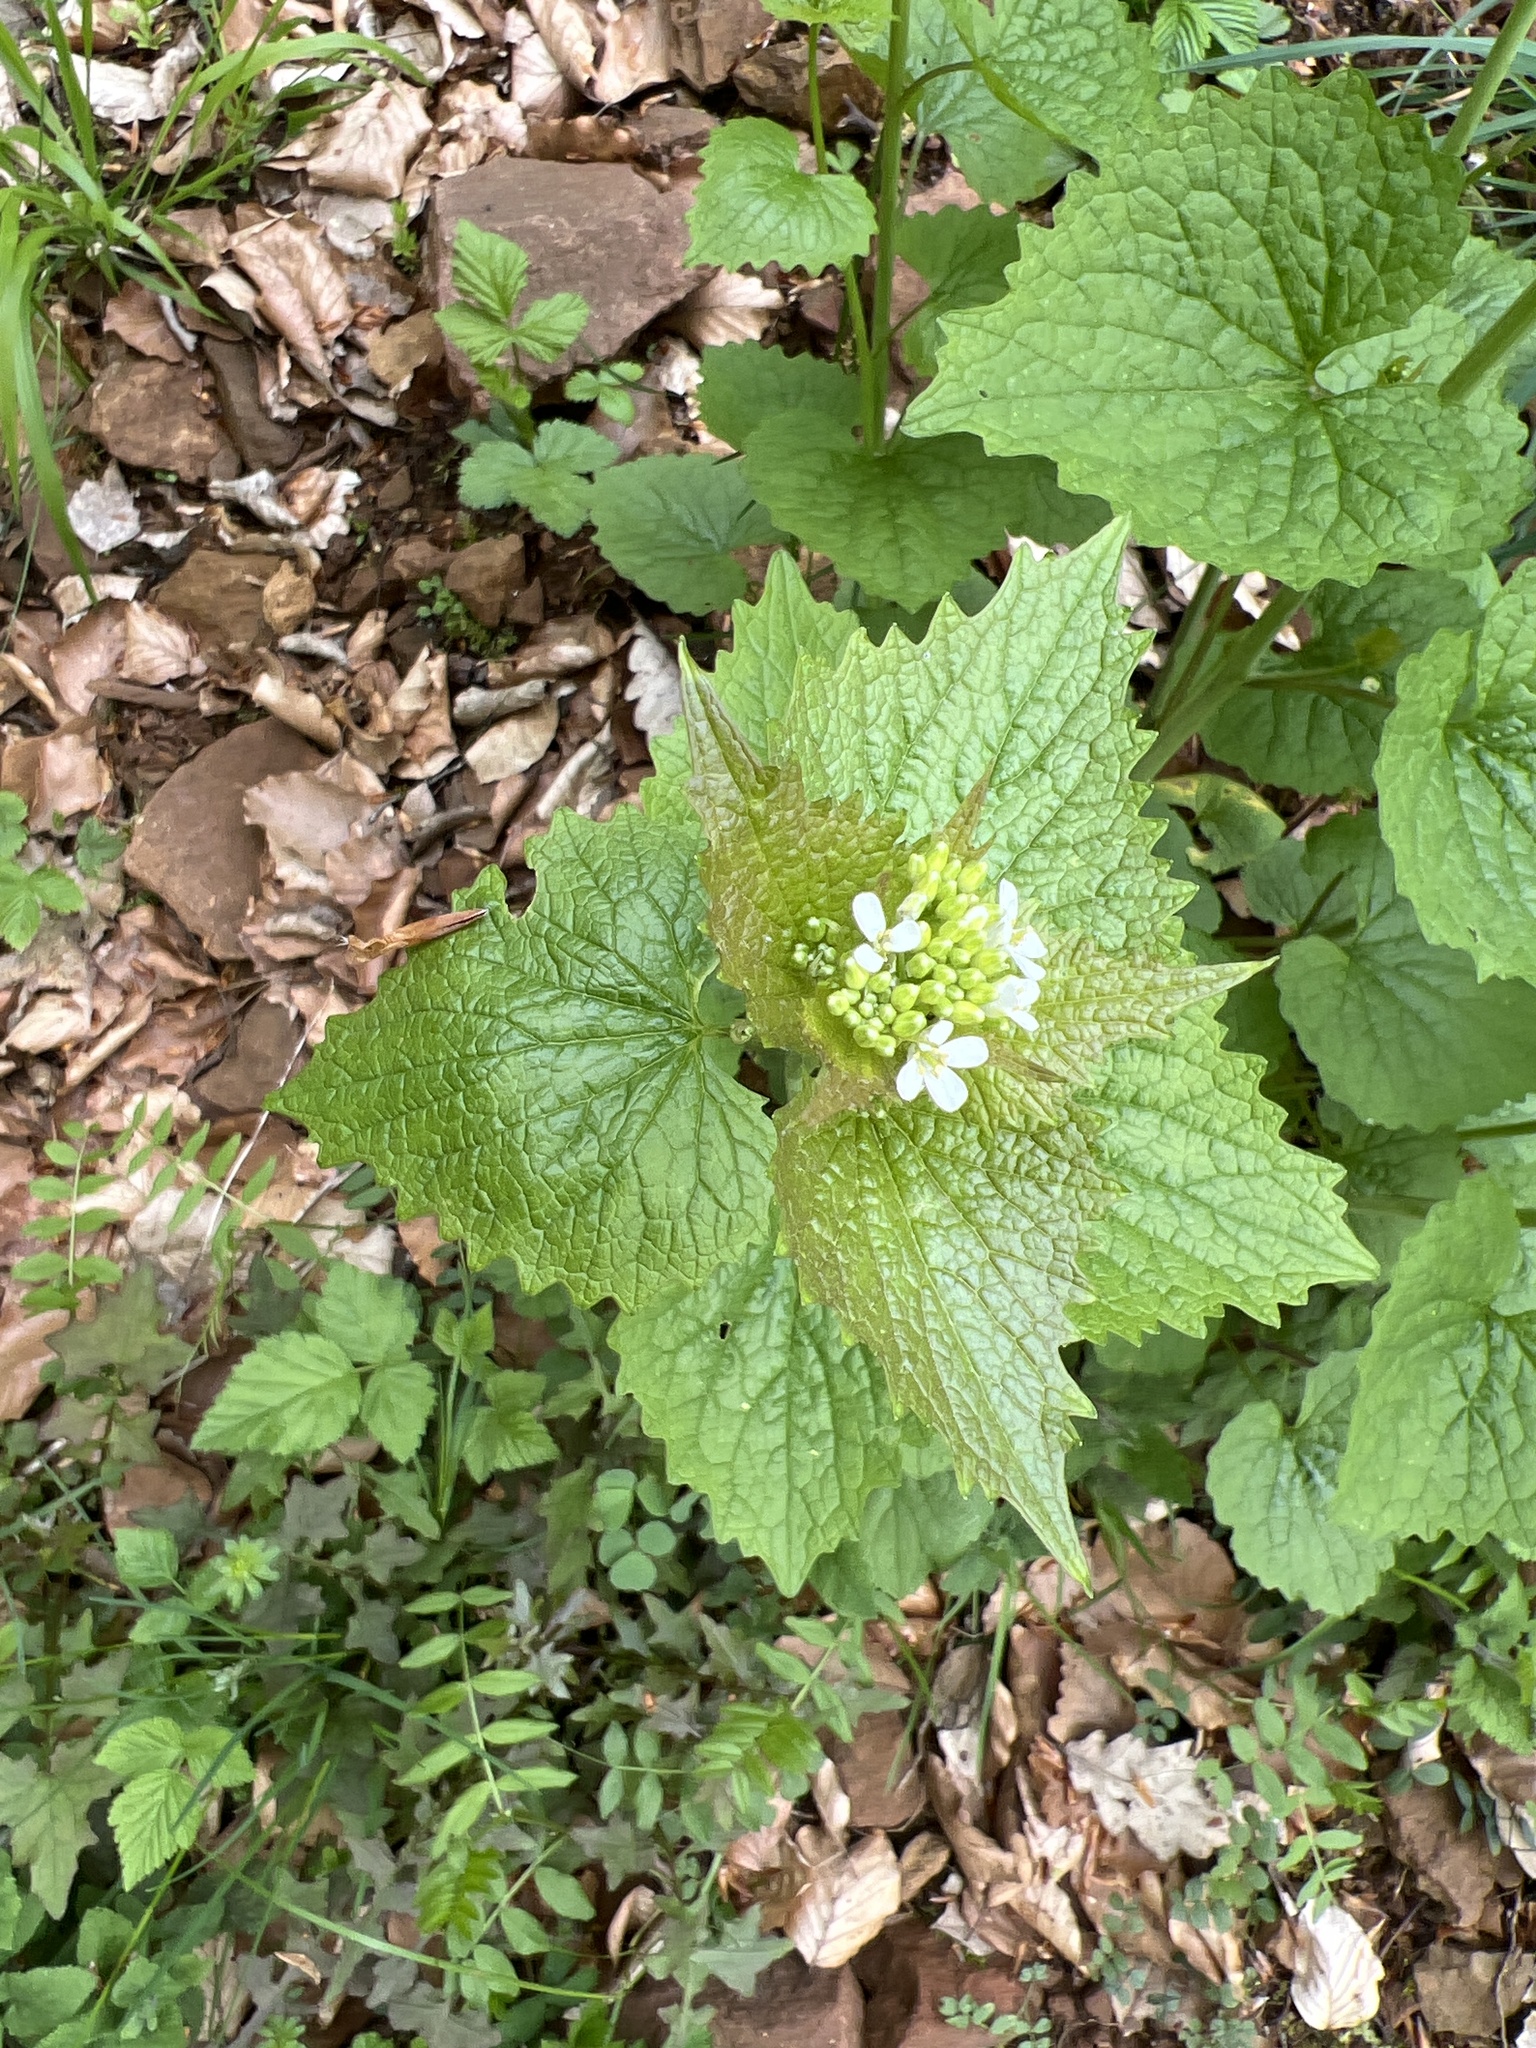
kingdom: Plantae
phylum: Tracheophyta
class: Magnoliopsida
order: Brassicales
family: Brassicaceae
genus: Alliaria
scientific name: Alliaria petiolata
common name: Garlic mustard
